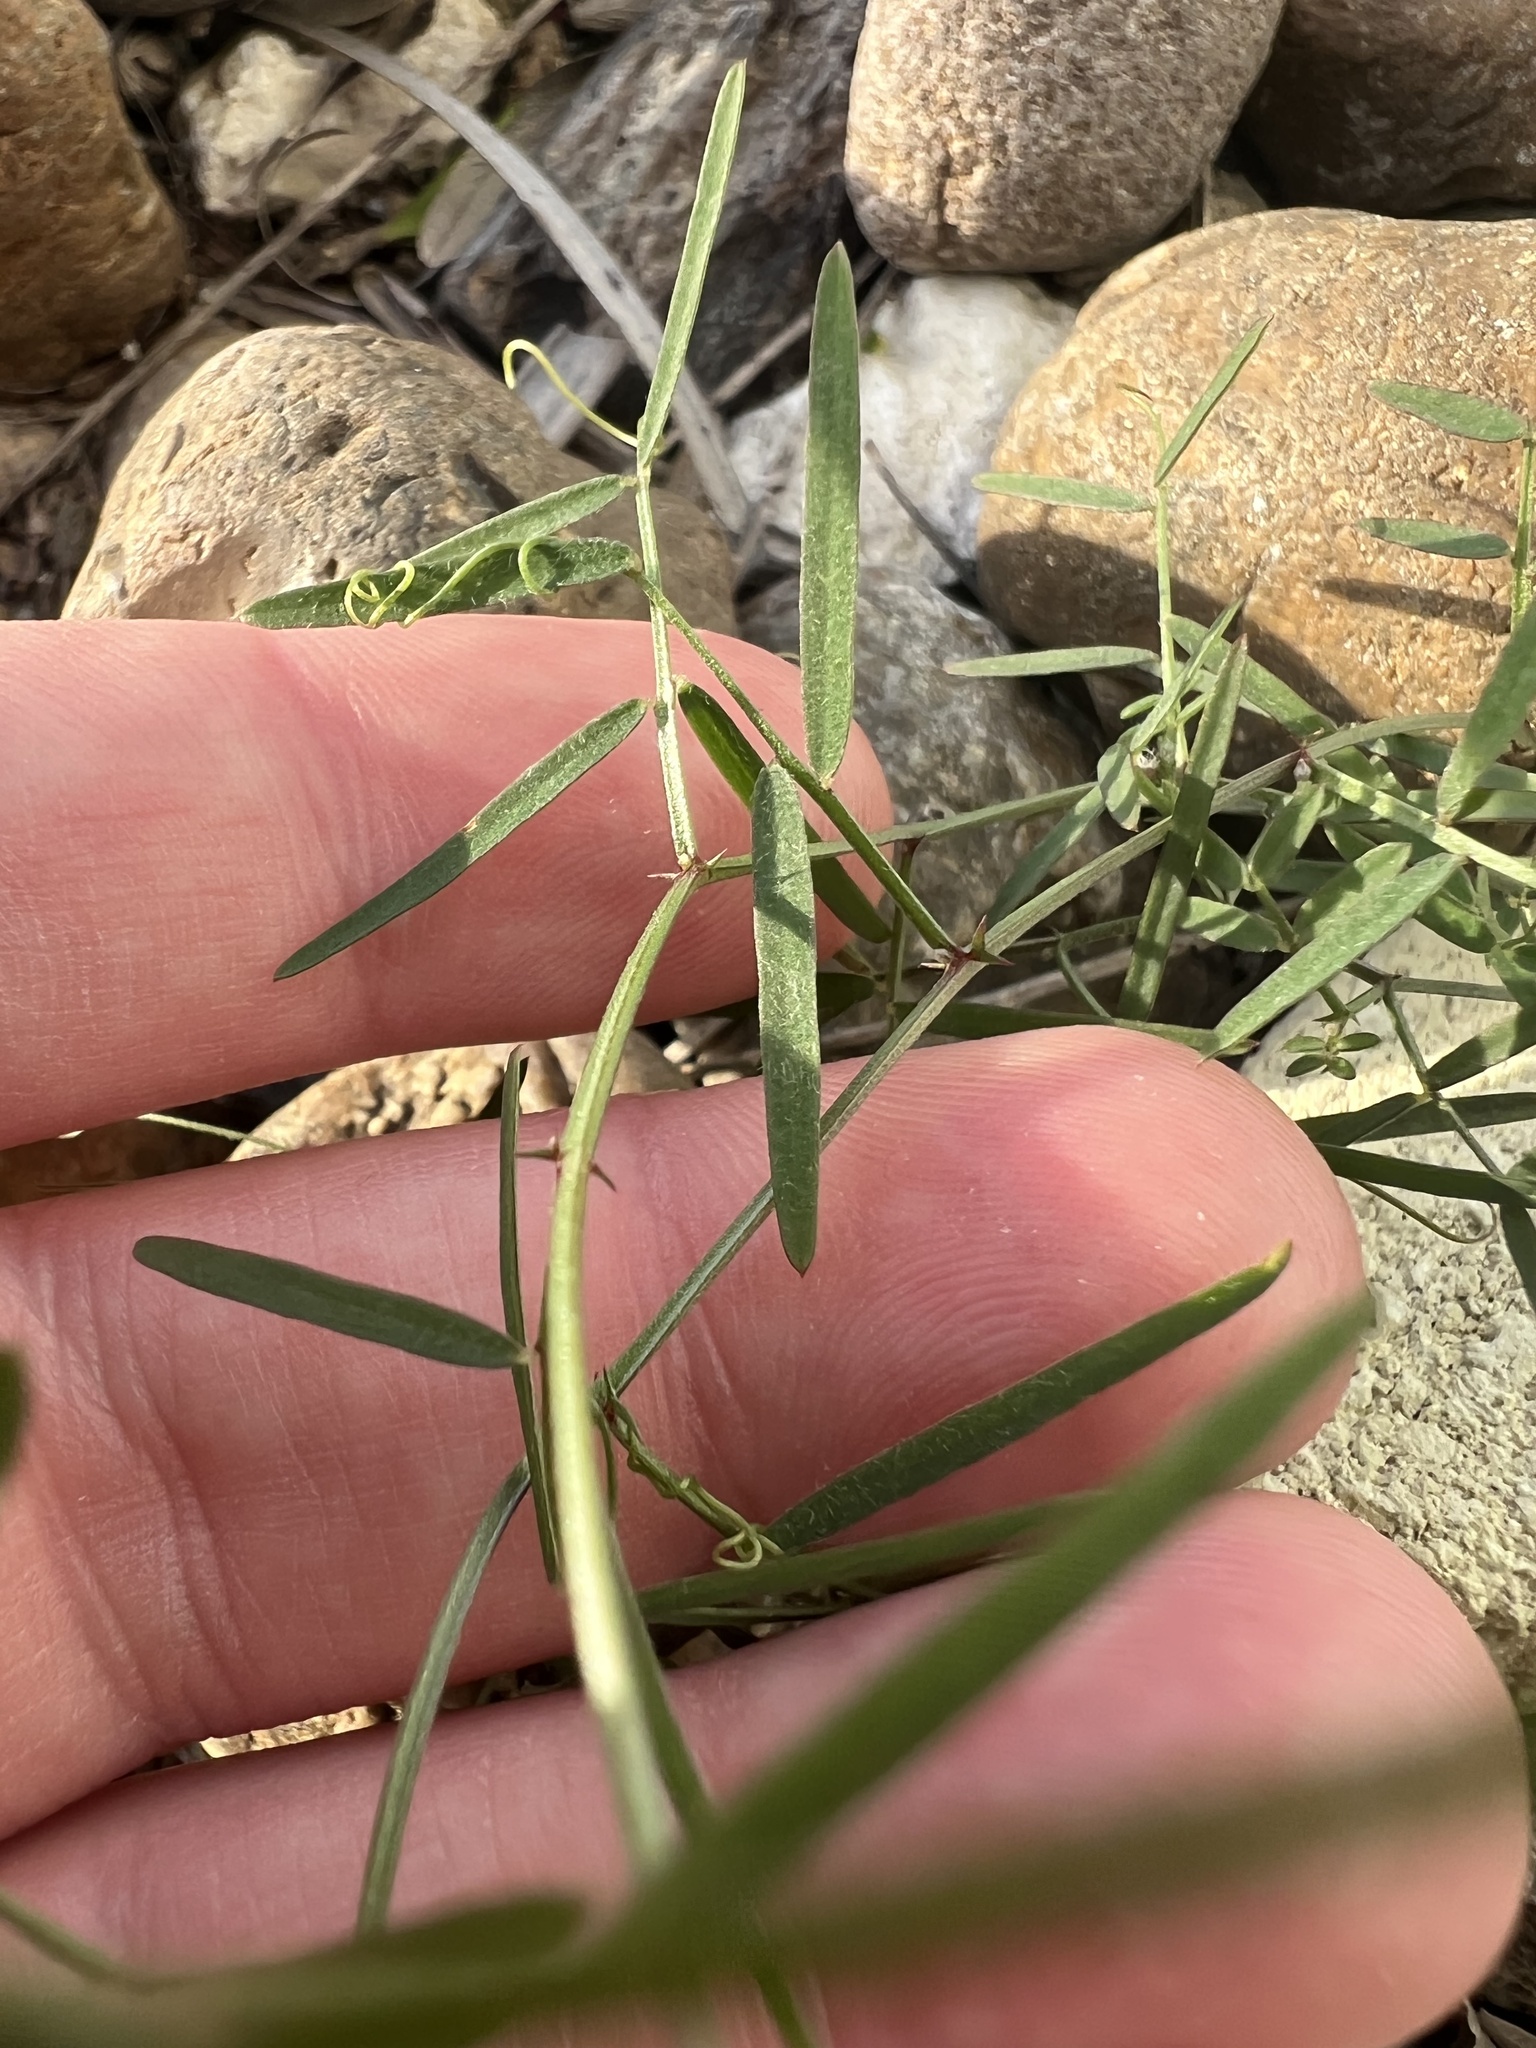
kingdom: Plantae
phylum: Tracheophyta
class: Magnoliopsida
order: Fabales
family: Fabaceae
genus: Vicia
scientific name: Vicia ludoviciana
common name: Louisiana vetch
